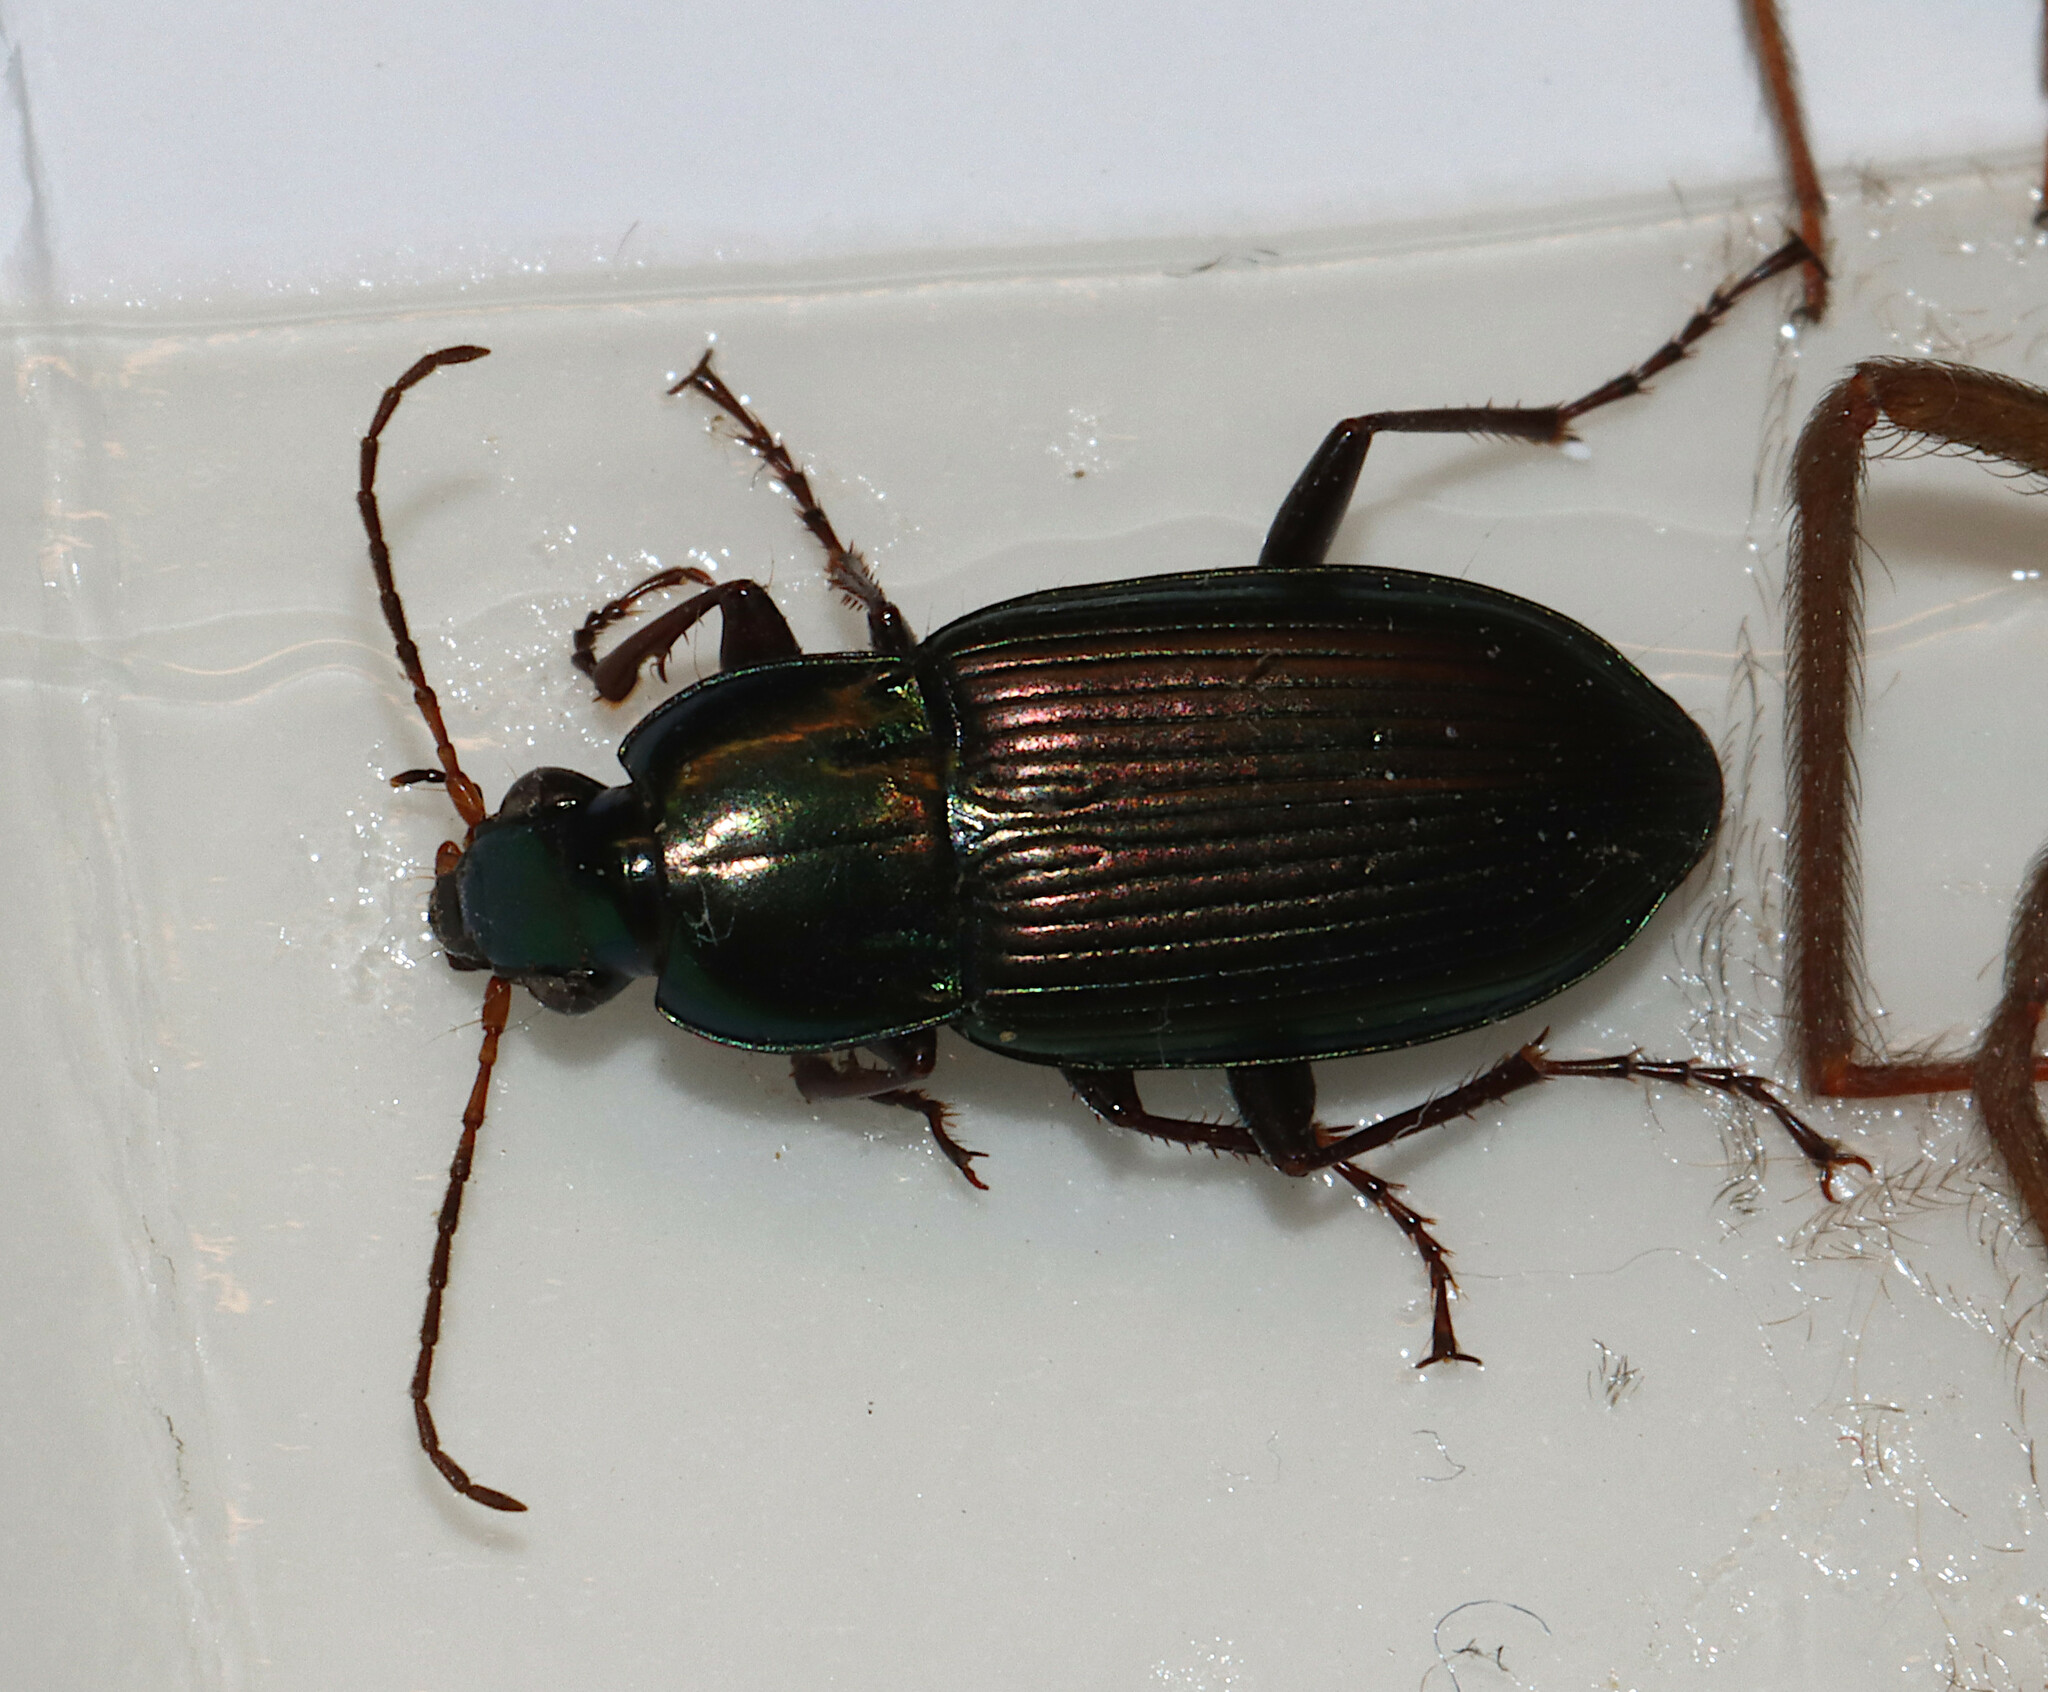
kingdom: Animalia
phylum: Arthropoda
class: Insecta
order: Coleoptera
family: Carabidae
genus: Poecilus
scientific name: Poecilus chalcites
